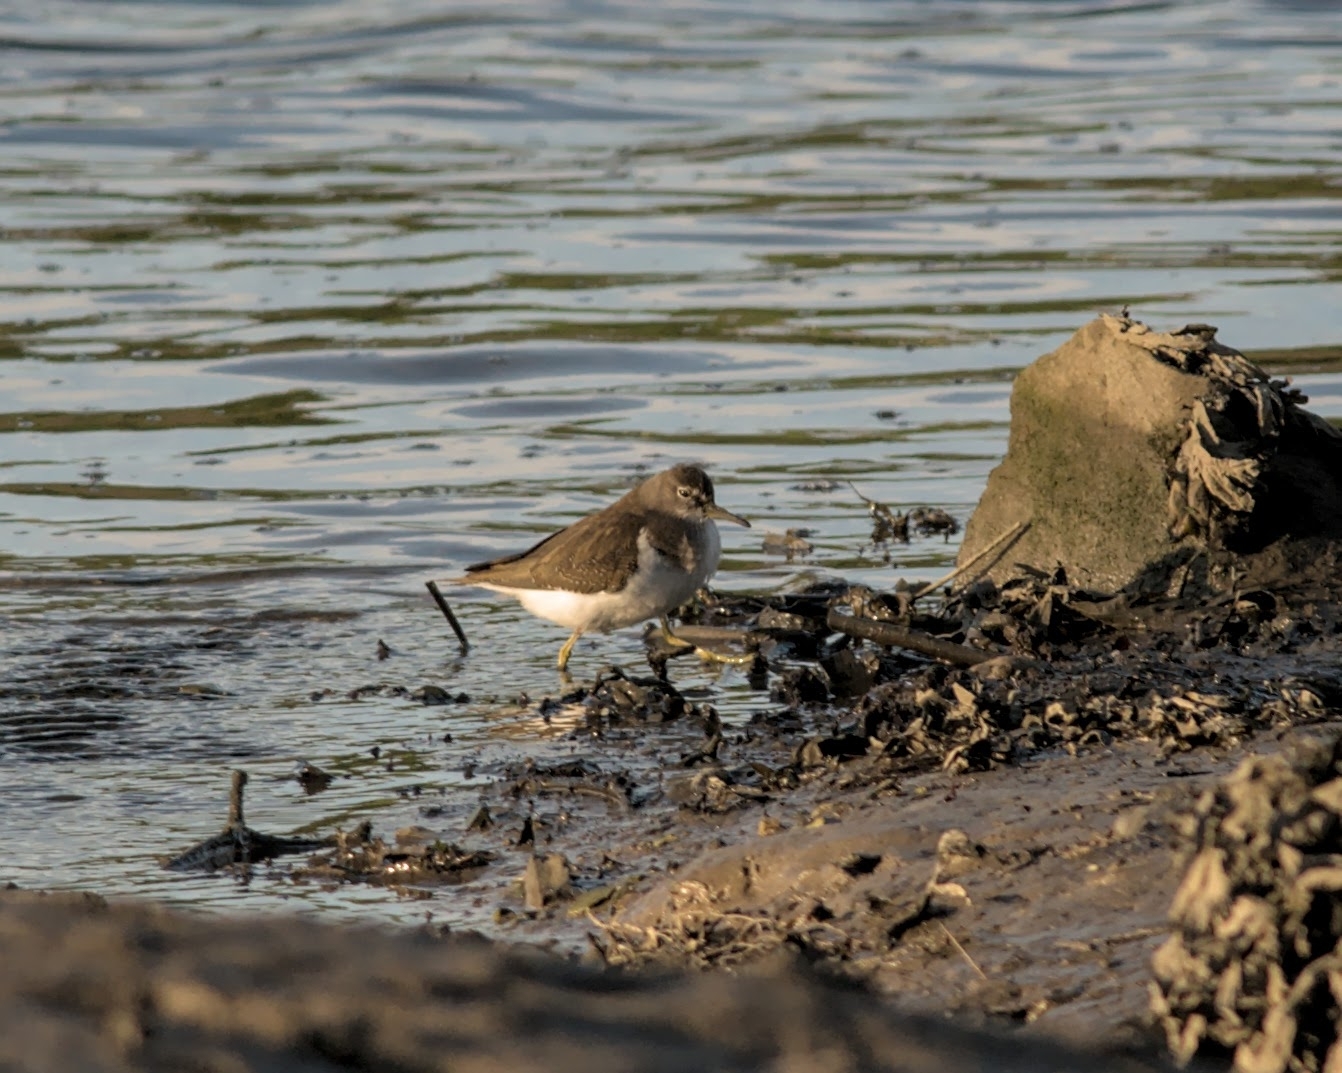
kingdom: Animalia
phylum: Chordata
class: Aves
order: Charadriiformes
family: Scolopacidae
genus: Tringa
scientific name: Tringa ochropus
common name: Green sandpiper
